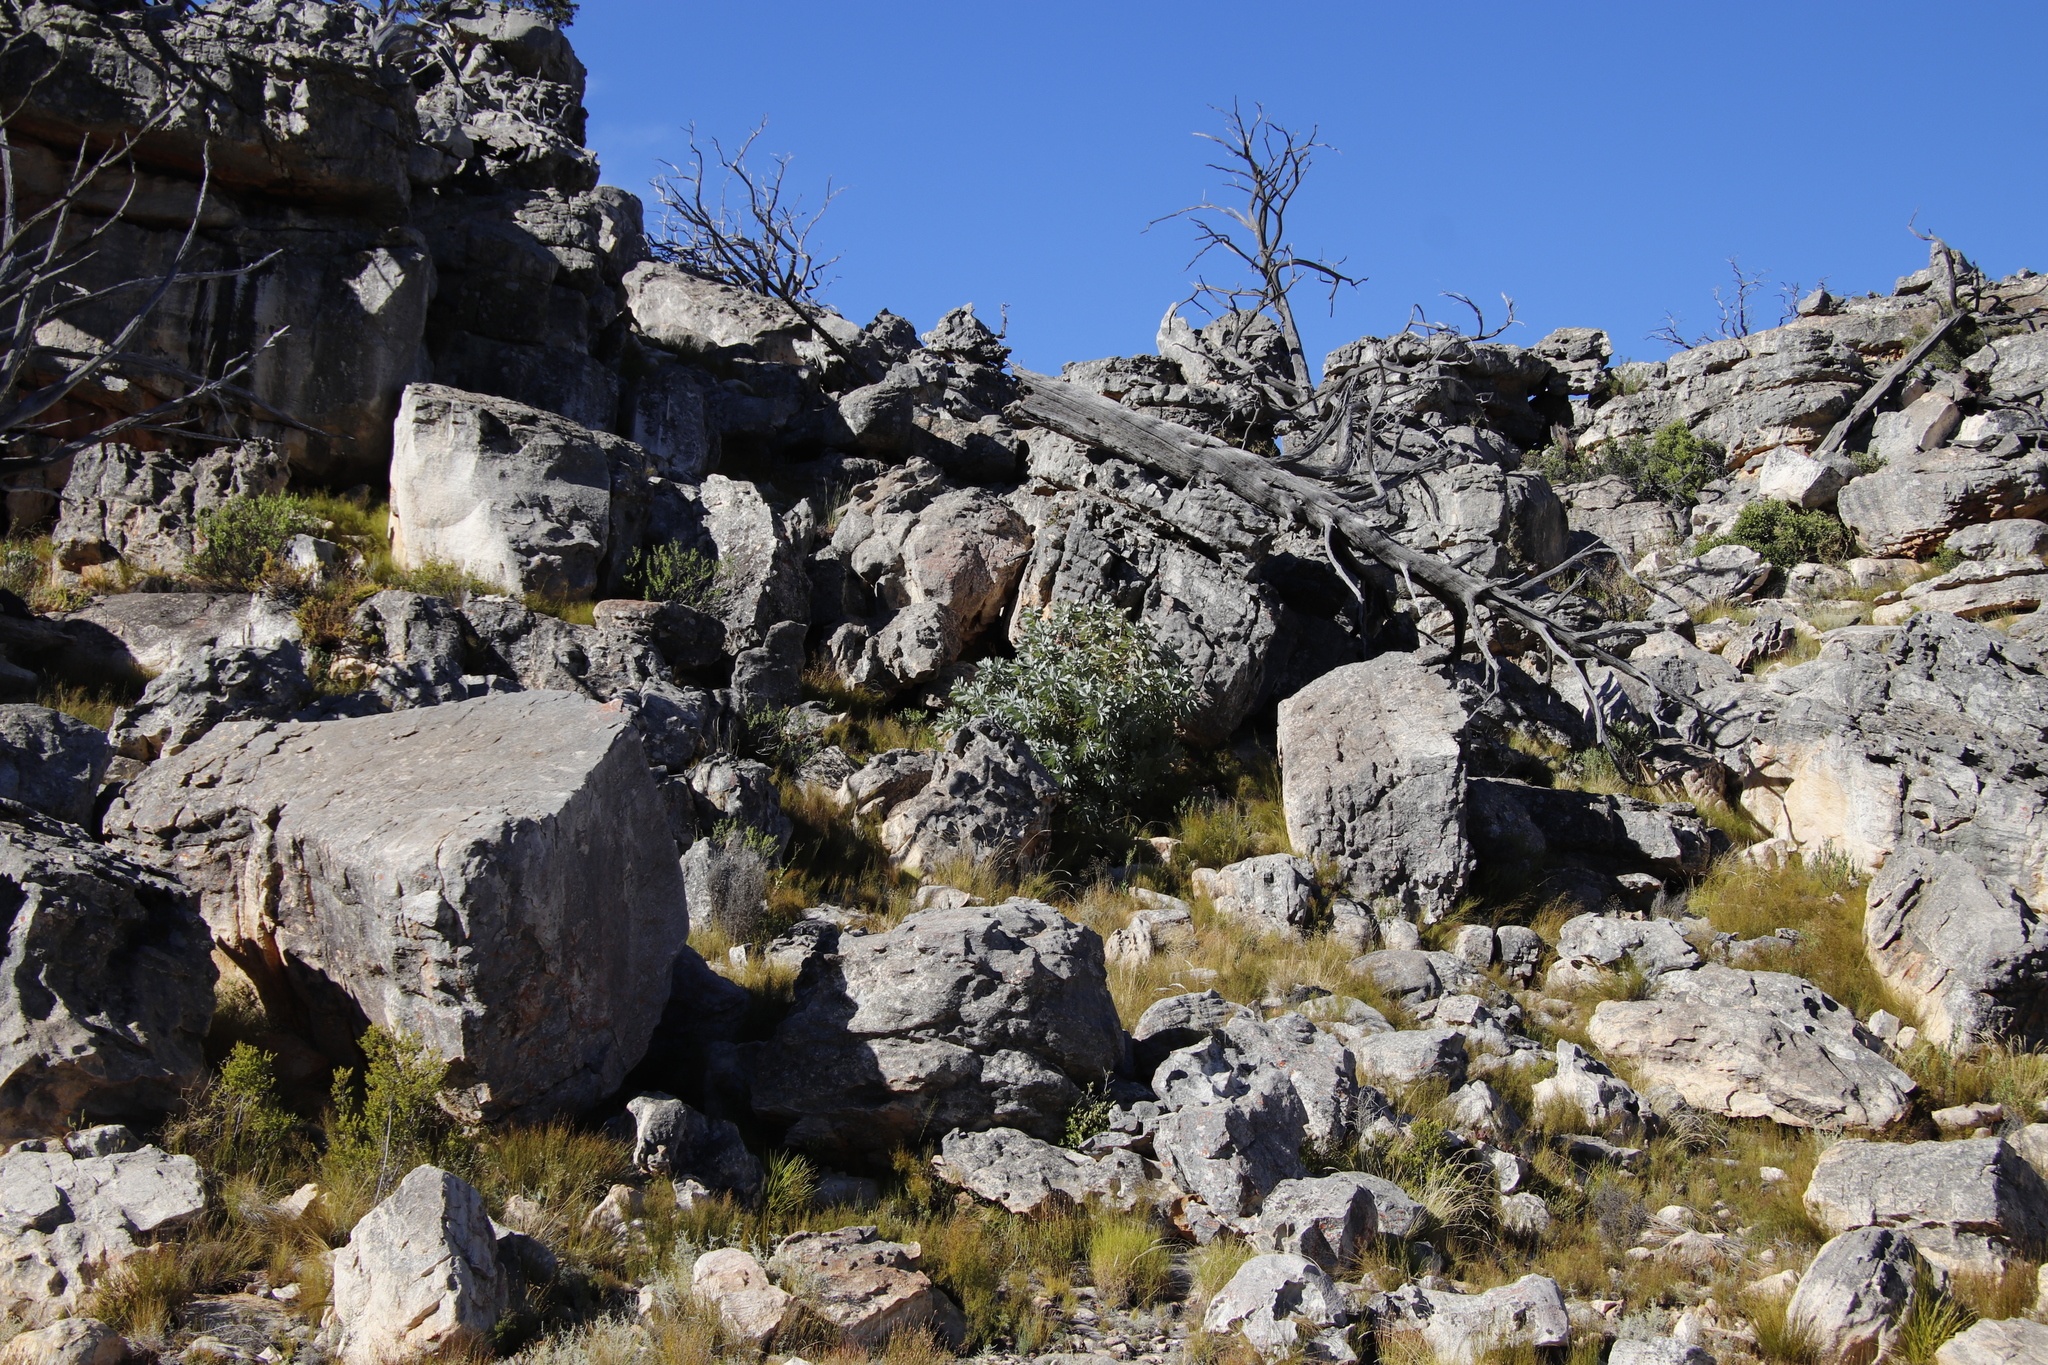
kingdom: Plantae
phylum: Tracheophyta
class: Pinopsida
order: Pinales
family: Cupressaceae
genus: Widdringtonia
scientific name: Widdringtonia nodiflora
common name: Cape cypress
